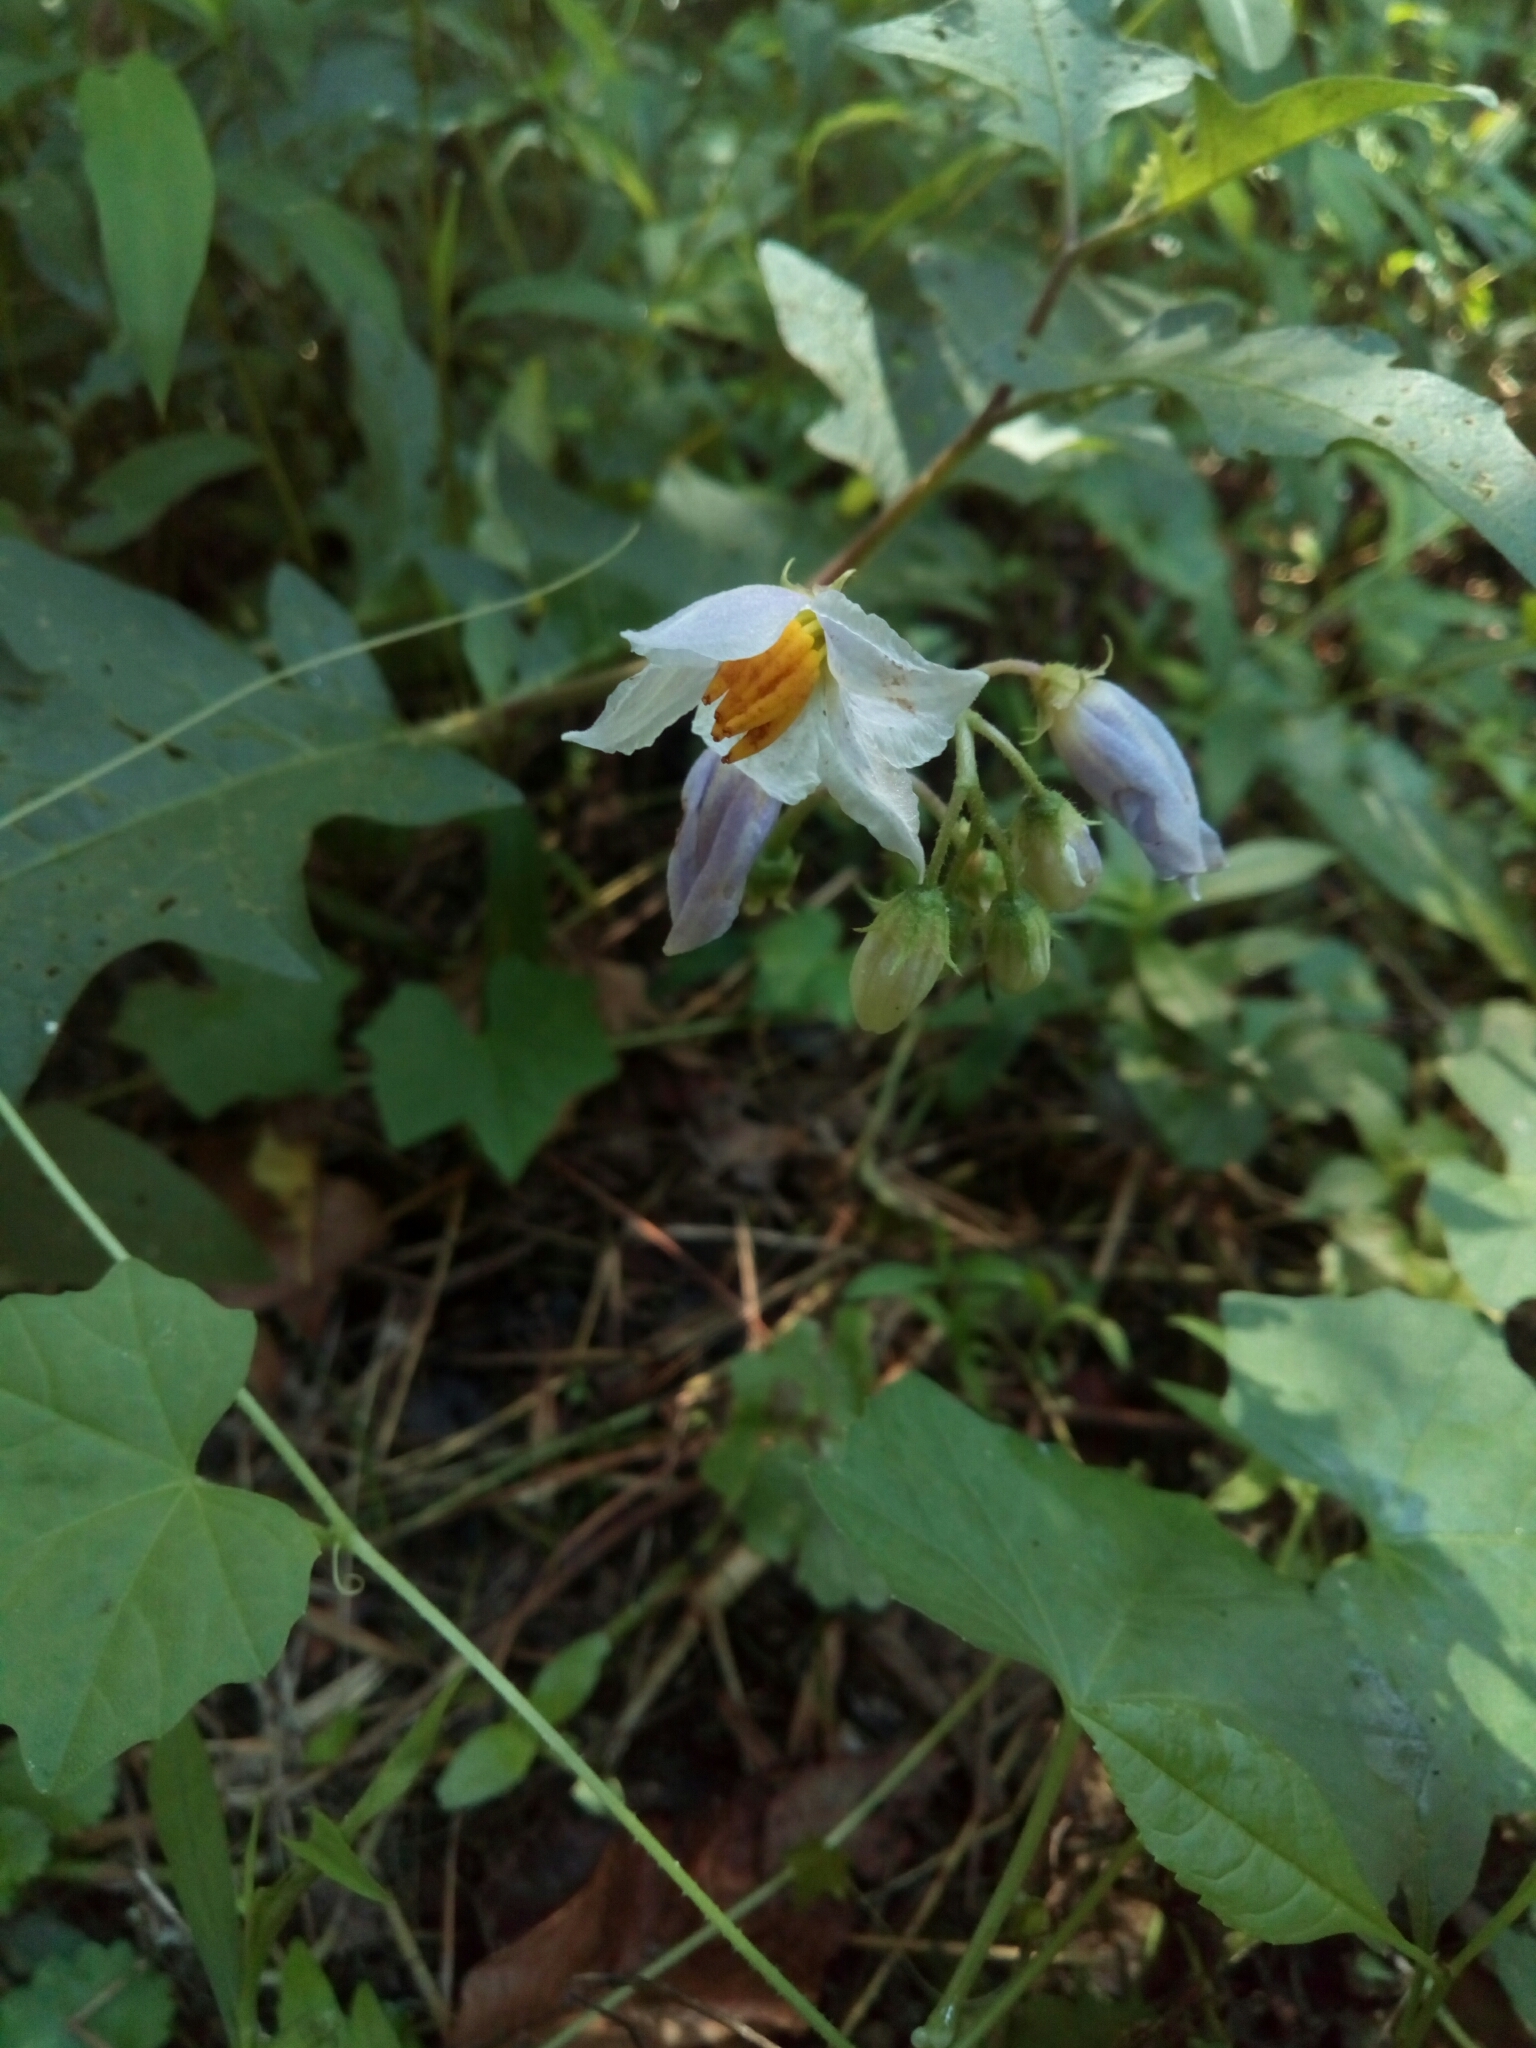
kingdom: Plantae
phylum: Tracheophyta
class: Magnoliopsida
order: Solanales
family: Solanaceae
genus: Solanum
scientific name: Solanum carolinense
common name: Horse-nettle
